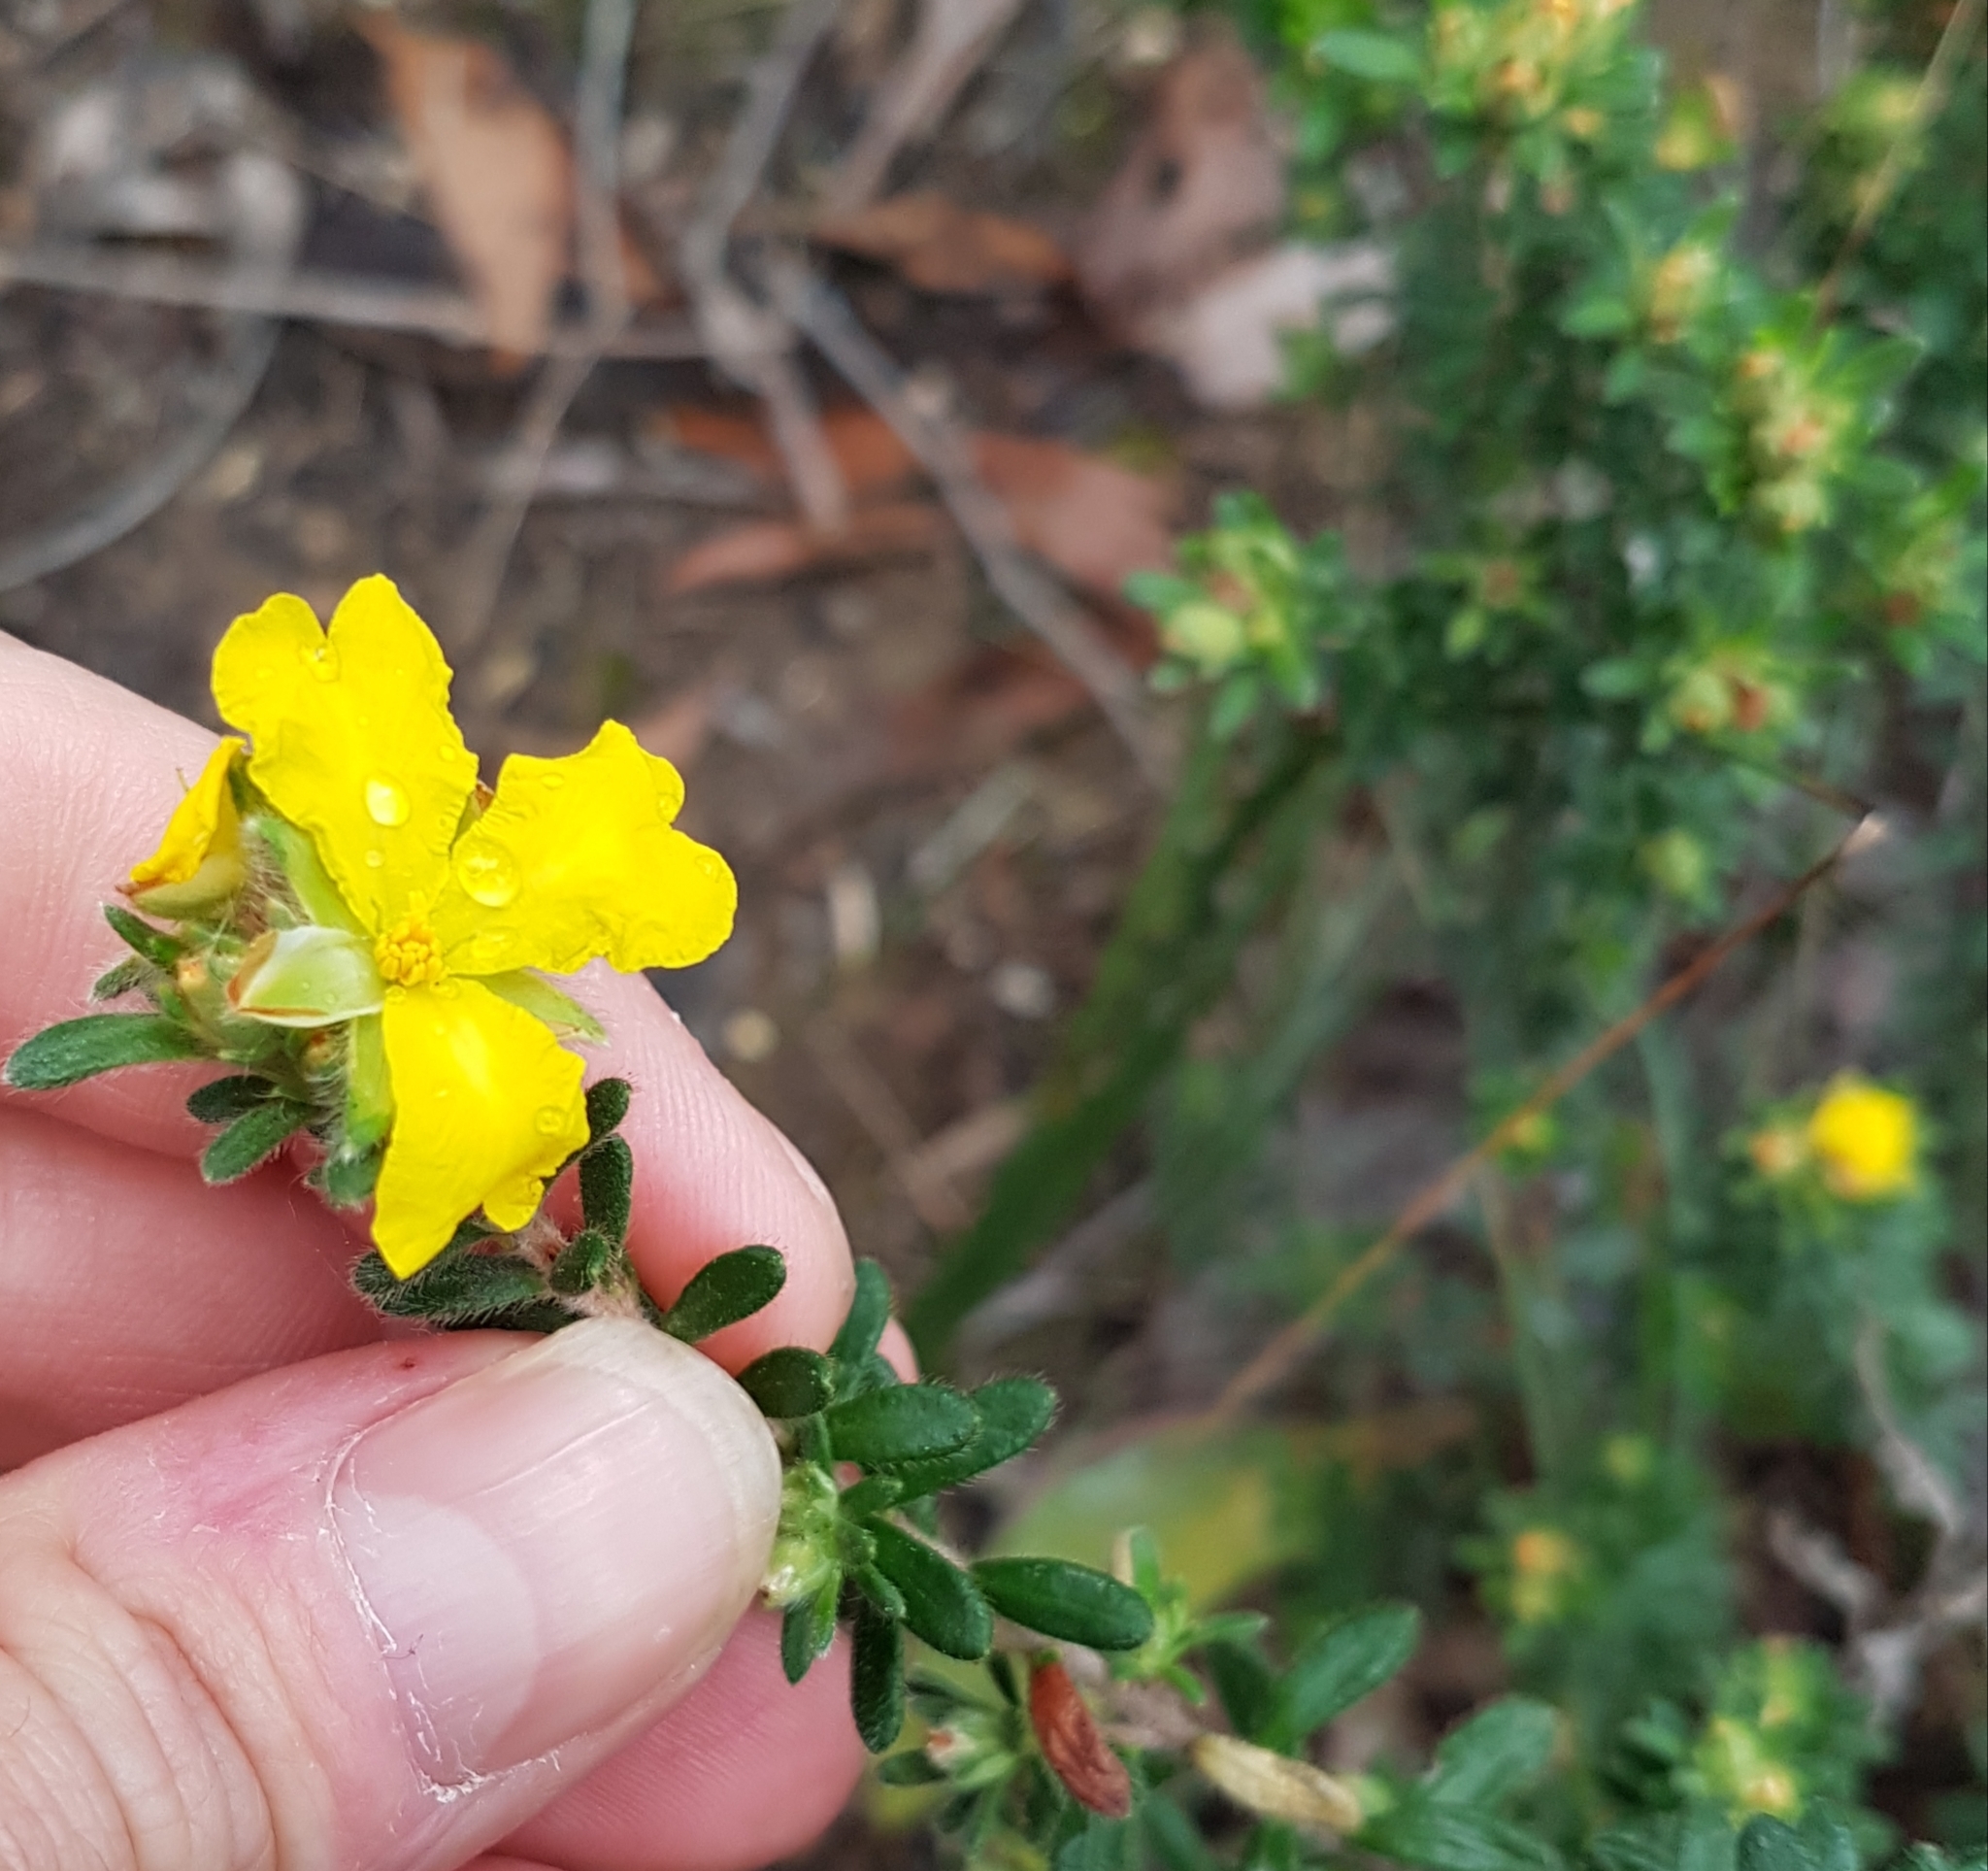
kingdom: Plantae
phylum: Tracheophyta
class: Magnoliopsida
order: Dilleniales
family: Dilleniaceae
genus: Hibbertia
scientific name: Hibbertia sericea
